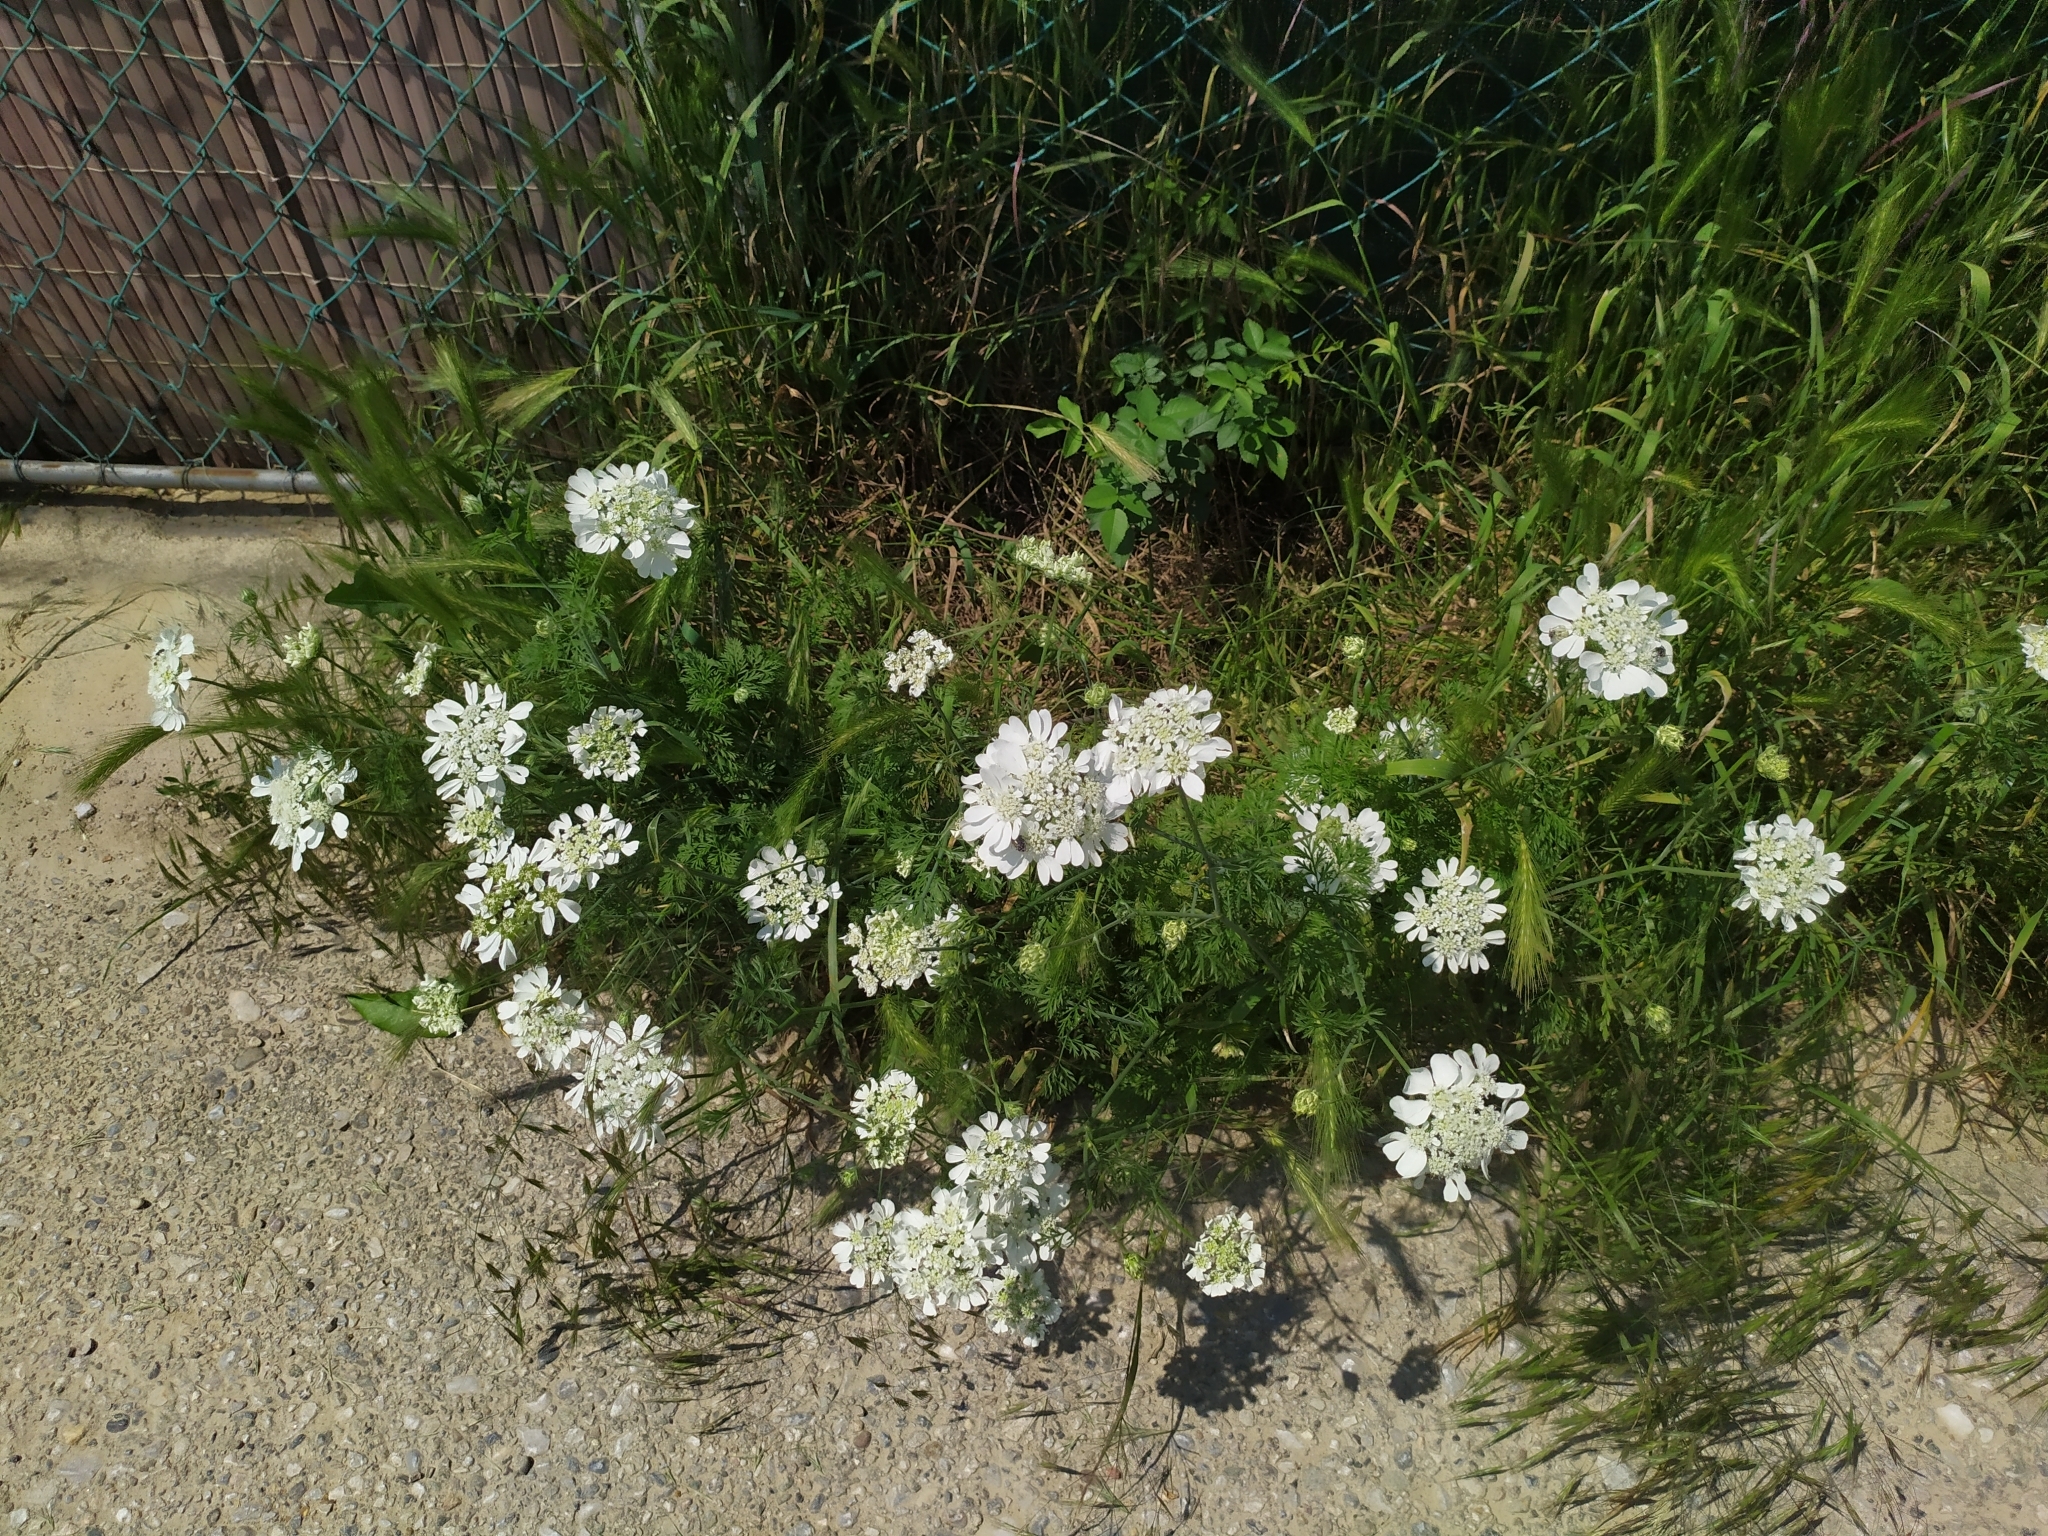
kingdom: Plantae
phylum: Tracheophyta
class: Magnoliopsida
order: Apiales
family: Apiaceae
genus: Orlaya
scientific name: Orlaya grandiflora
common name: White lace flower
